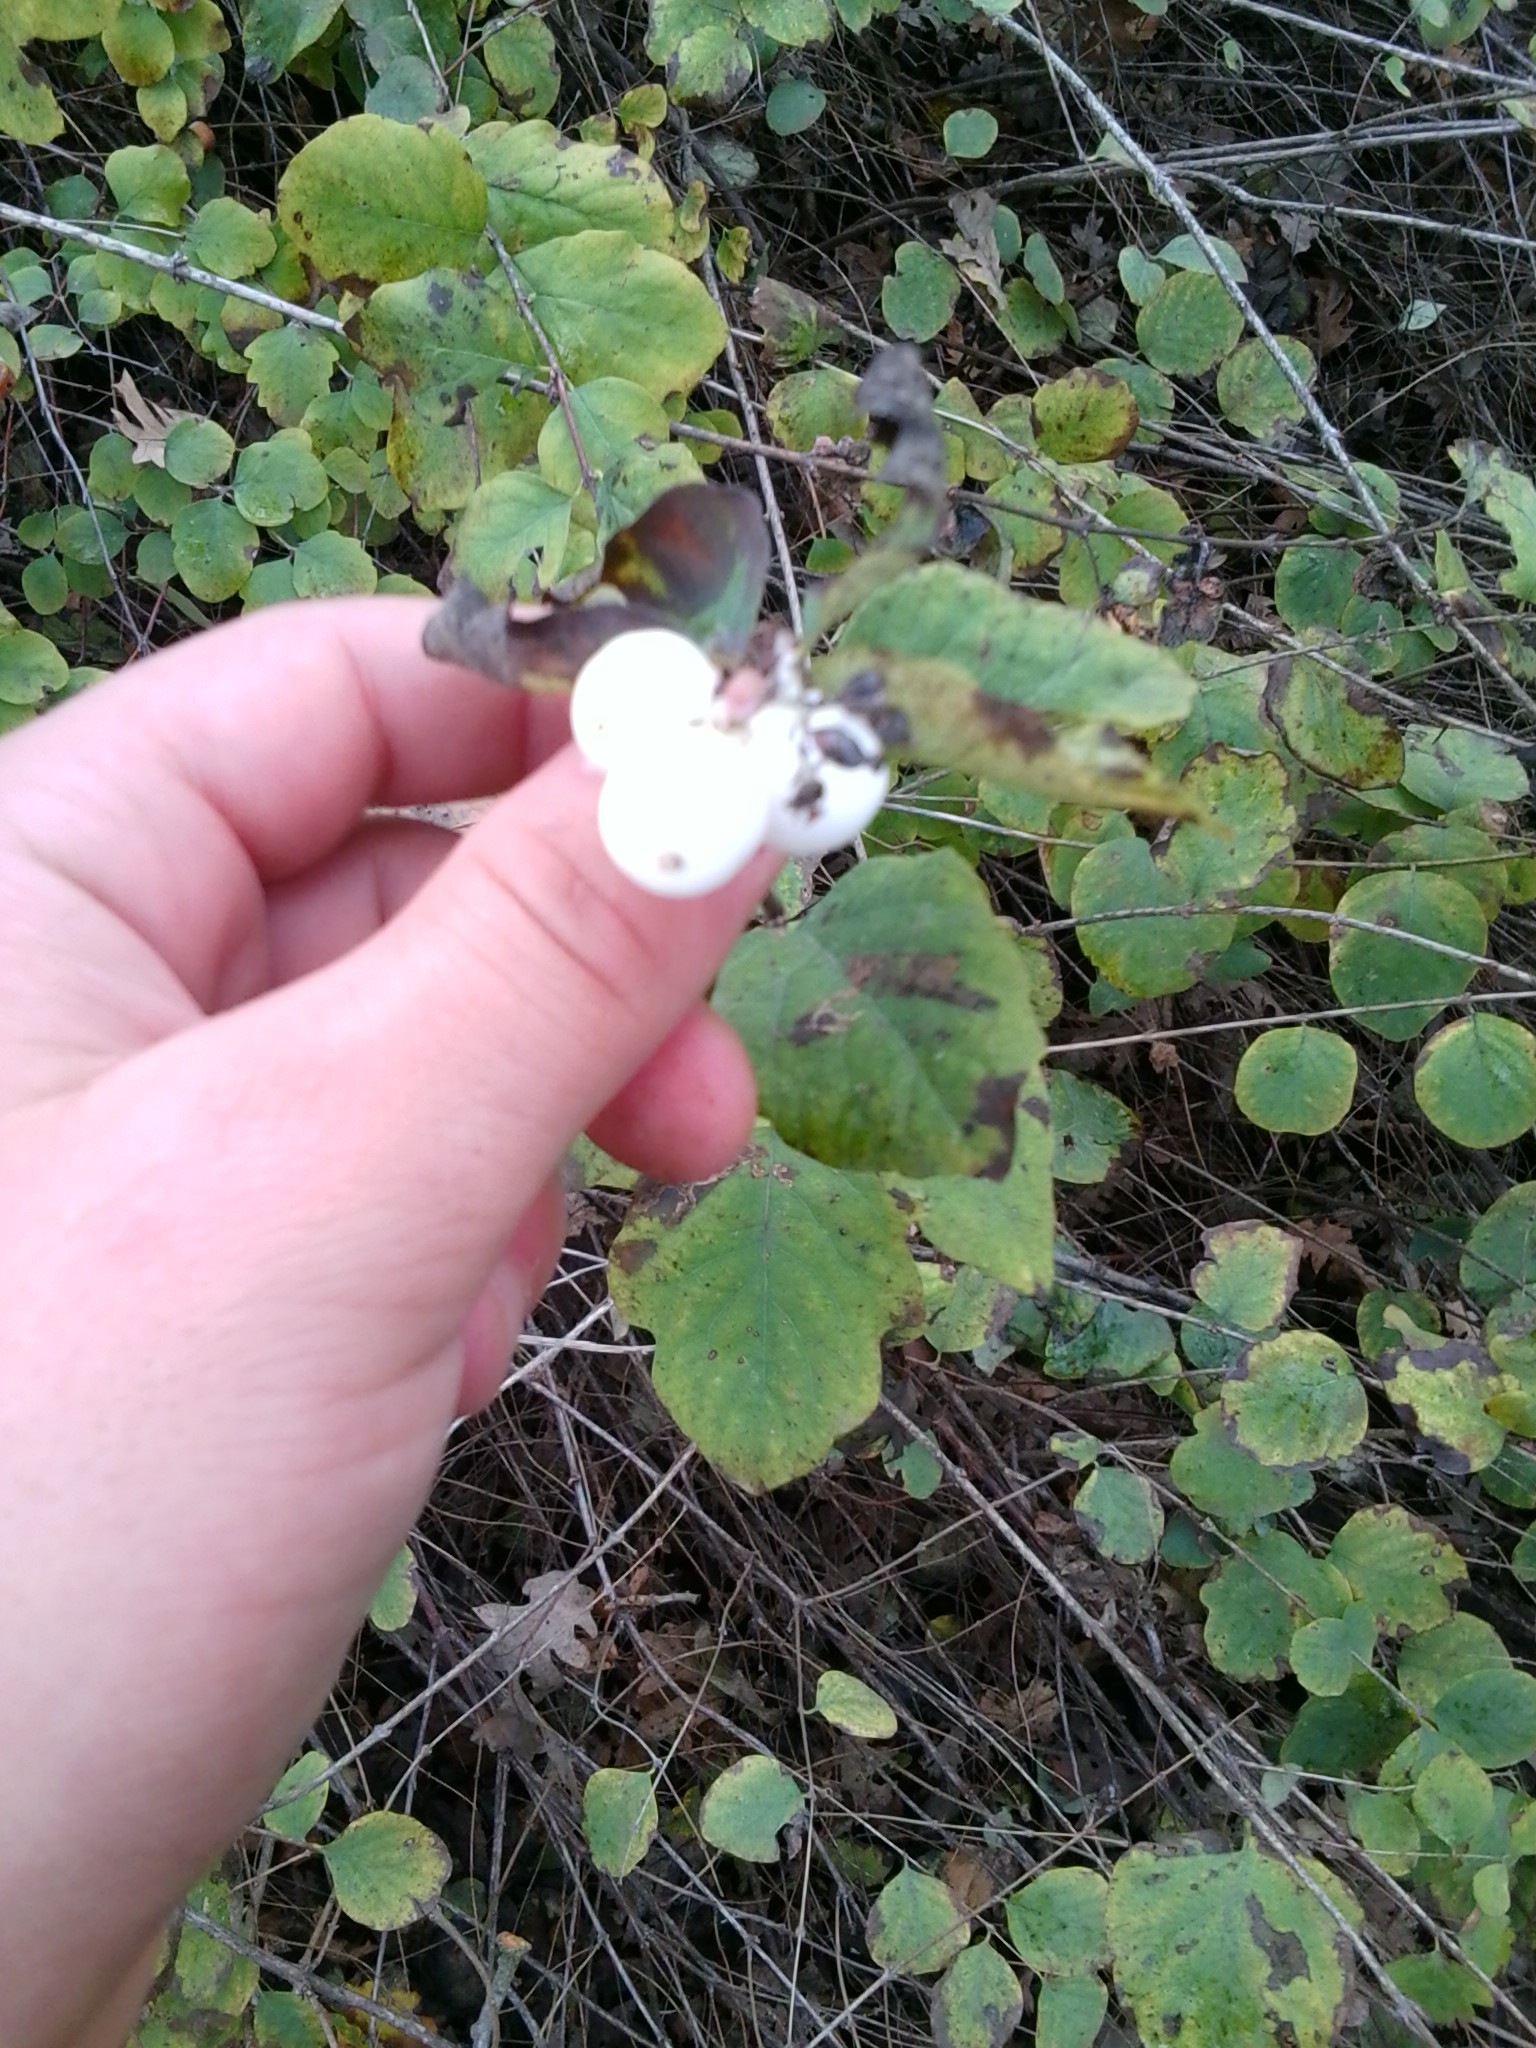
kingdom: Plantae
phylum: Tracheophyta
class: Magnoliopsida
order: Dipsacales
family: Caprifoliaceae
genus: Symphoricarpos
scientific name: Symphoricarpos albus
